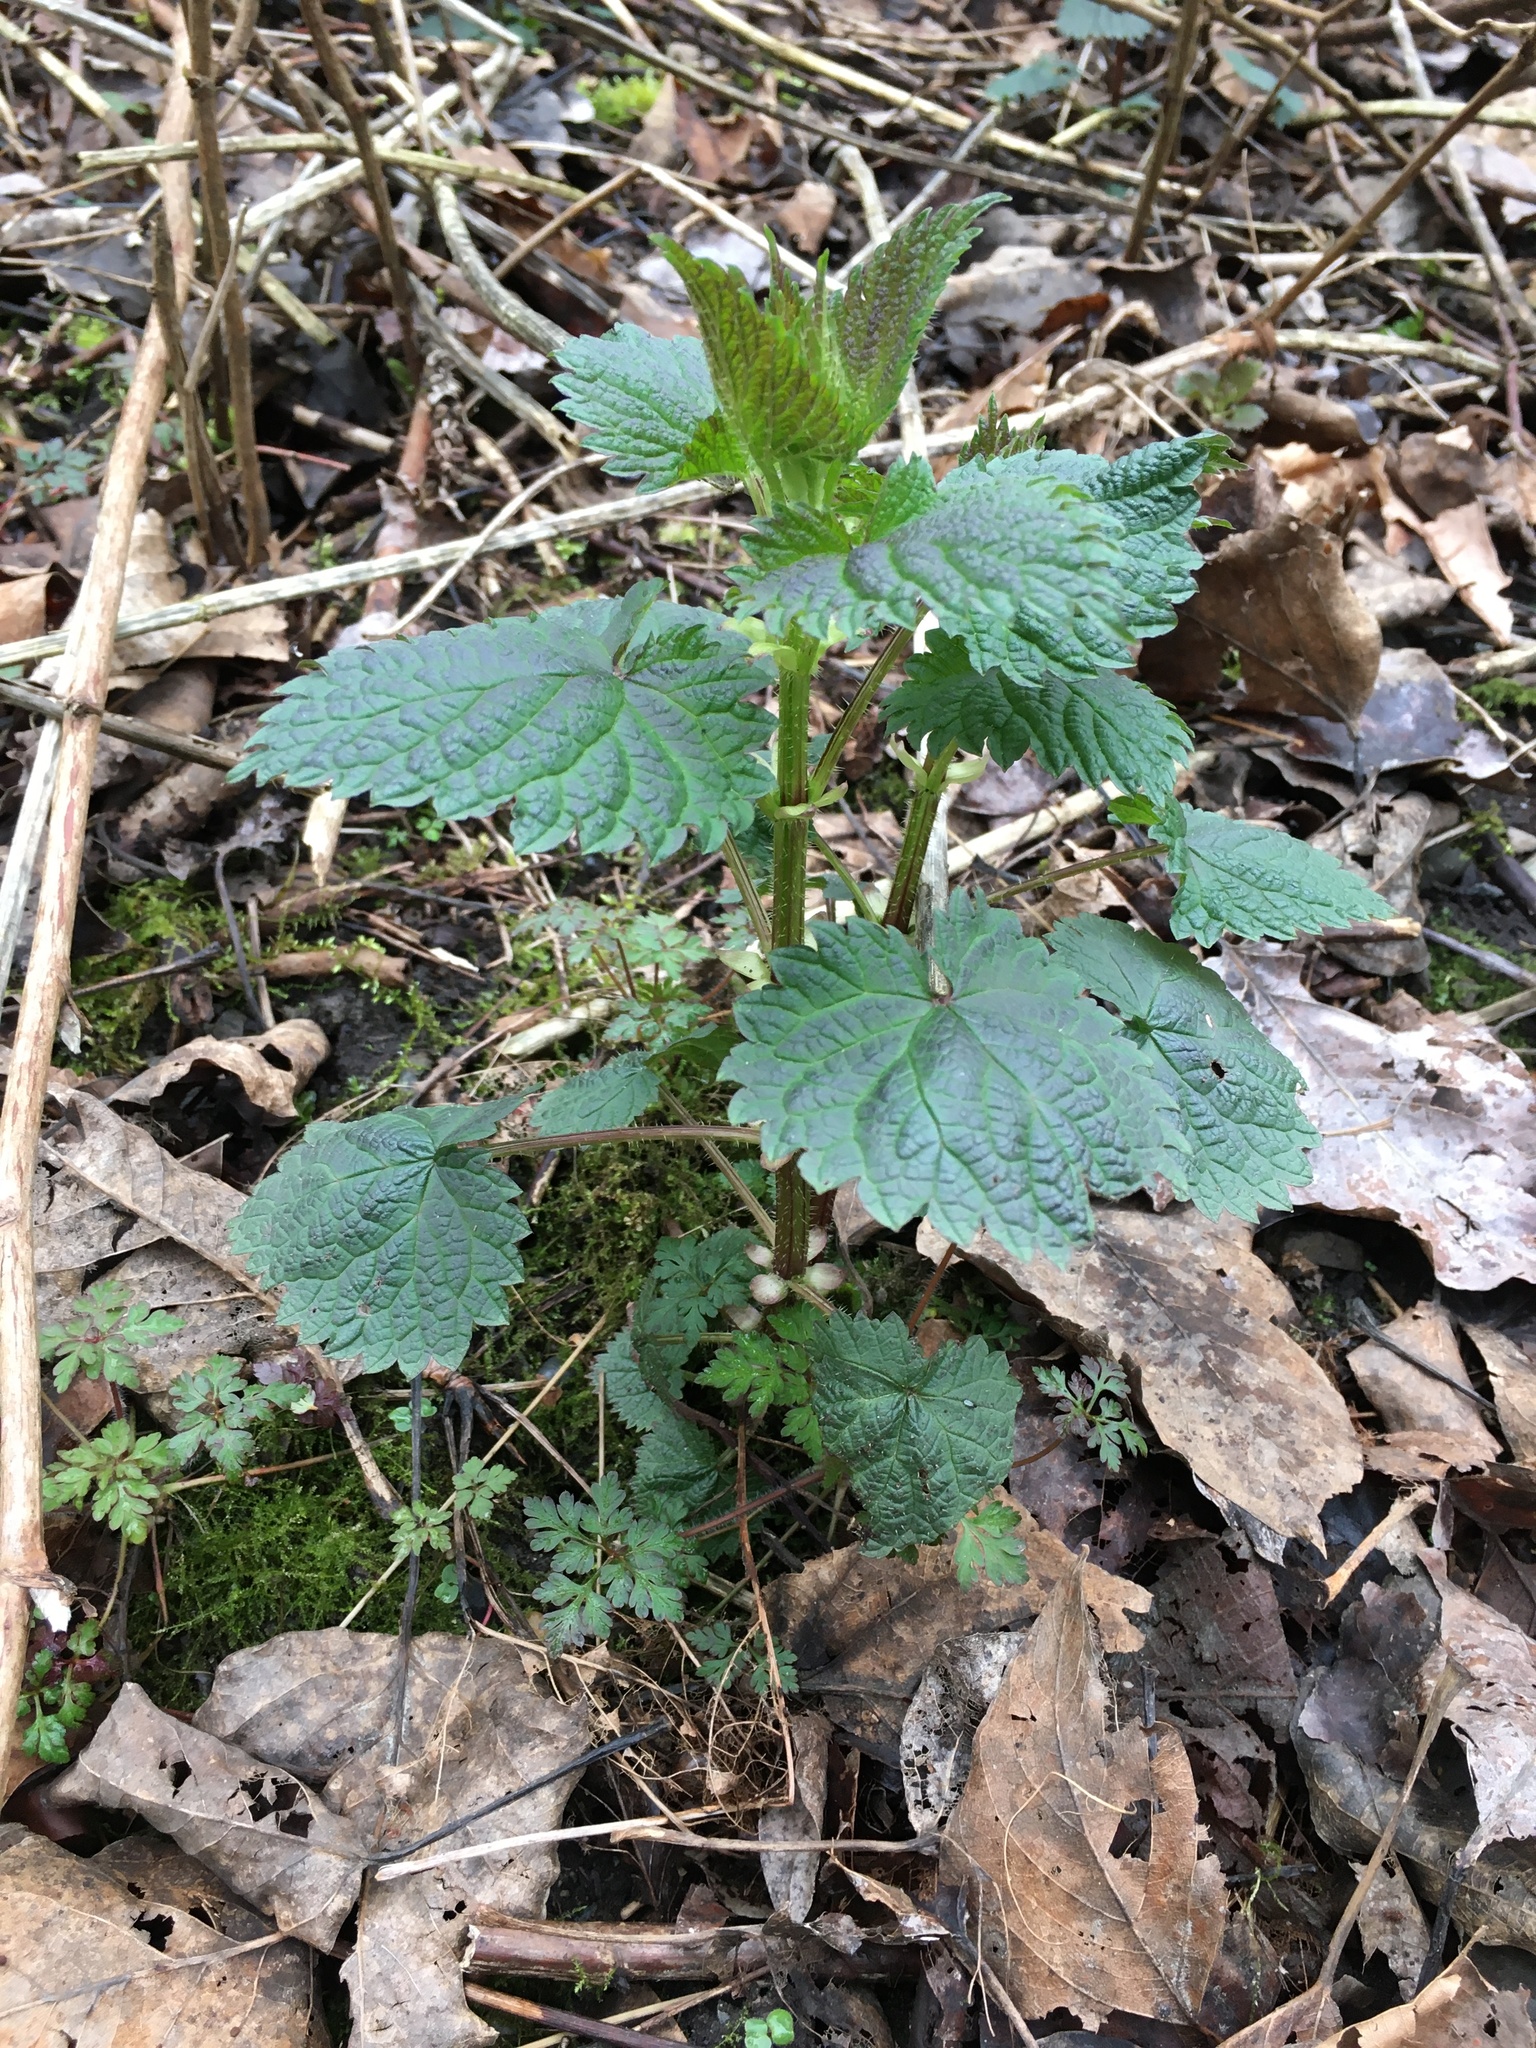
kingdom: Plantae
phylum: Tracheophyta
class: Magnoliopsida
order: Rosales
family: Urticaceae
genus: Urtica
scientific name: Urtica dioica
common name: Common nettle
